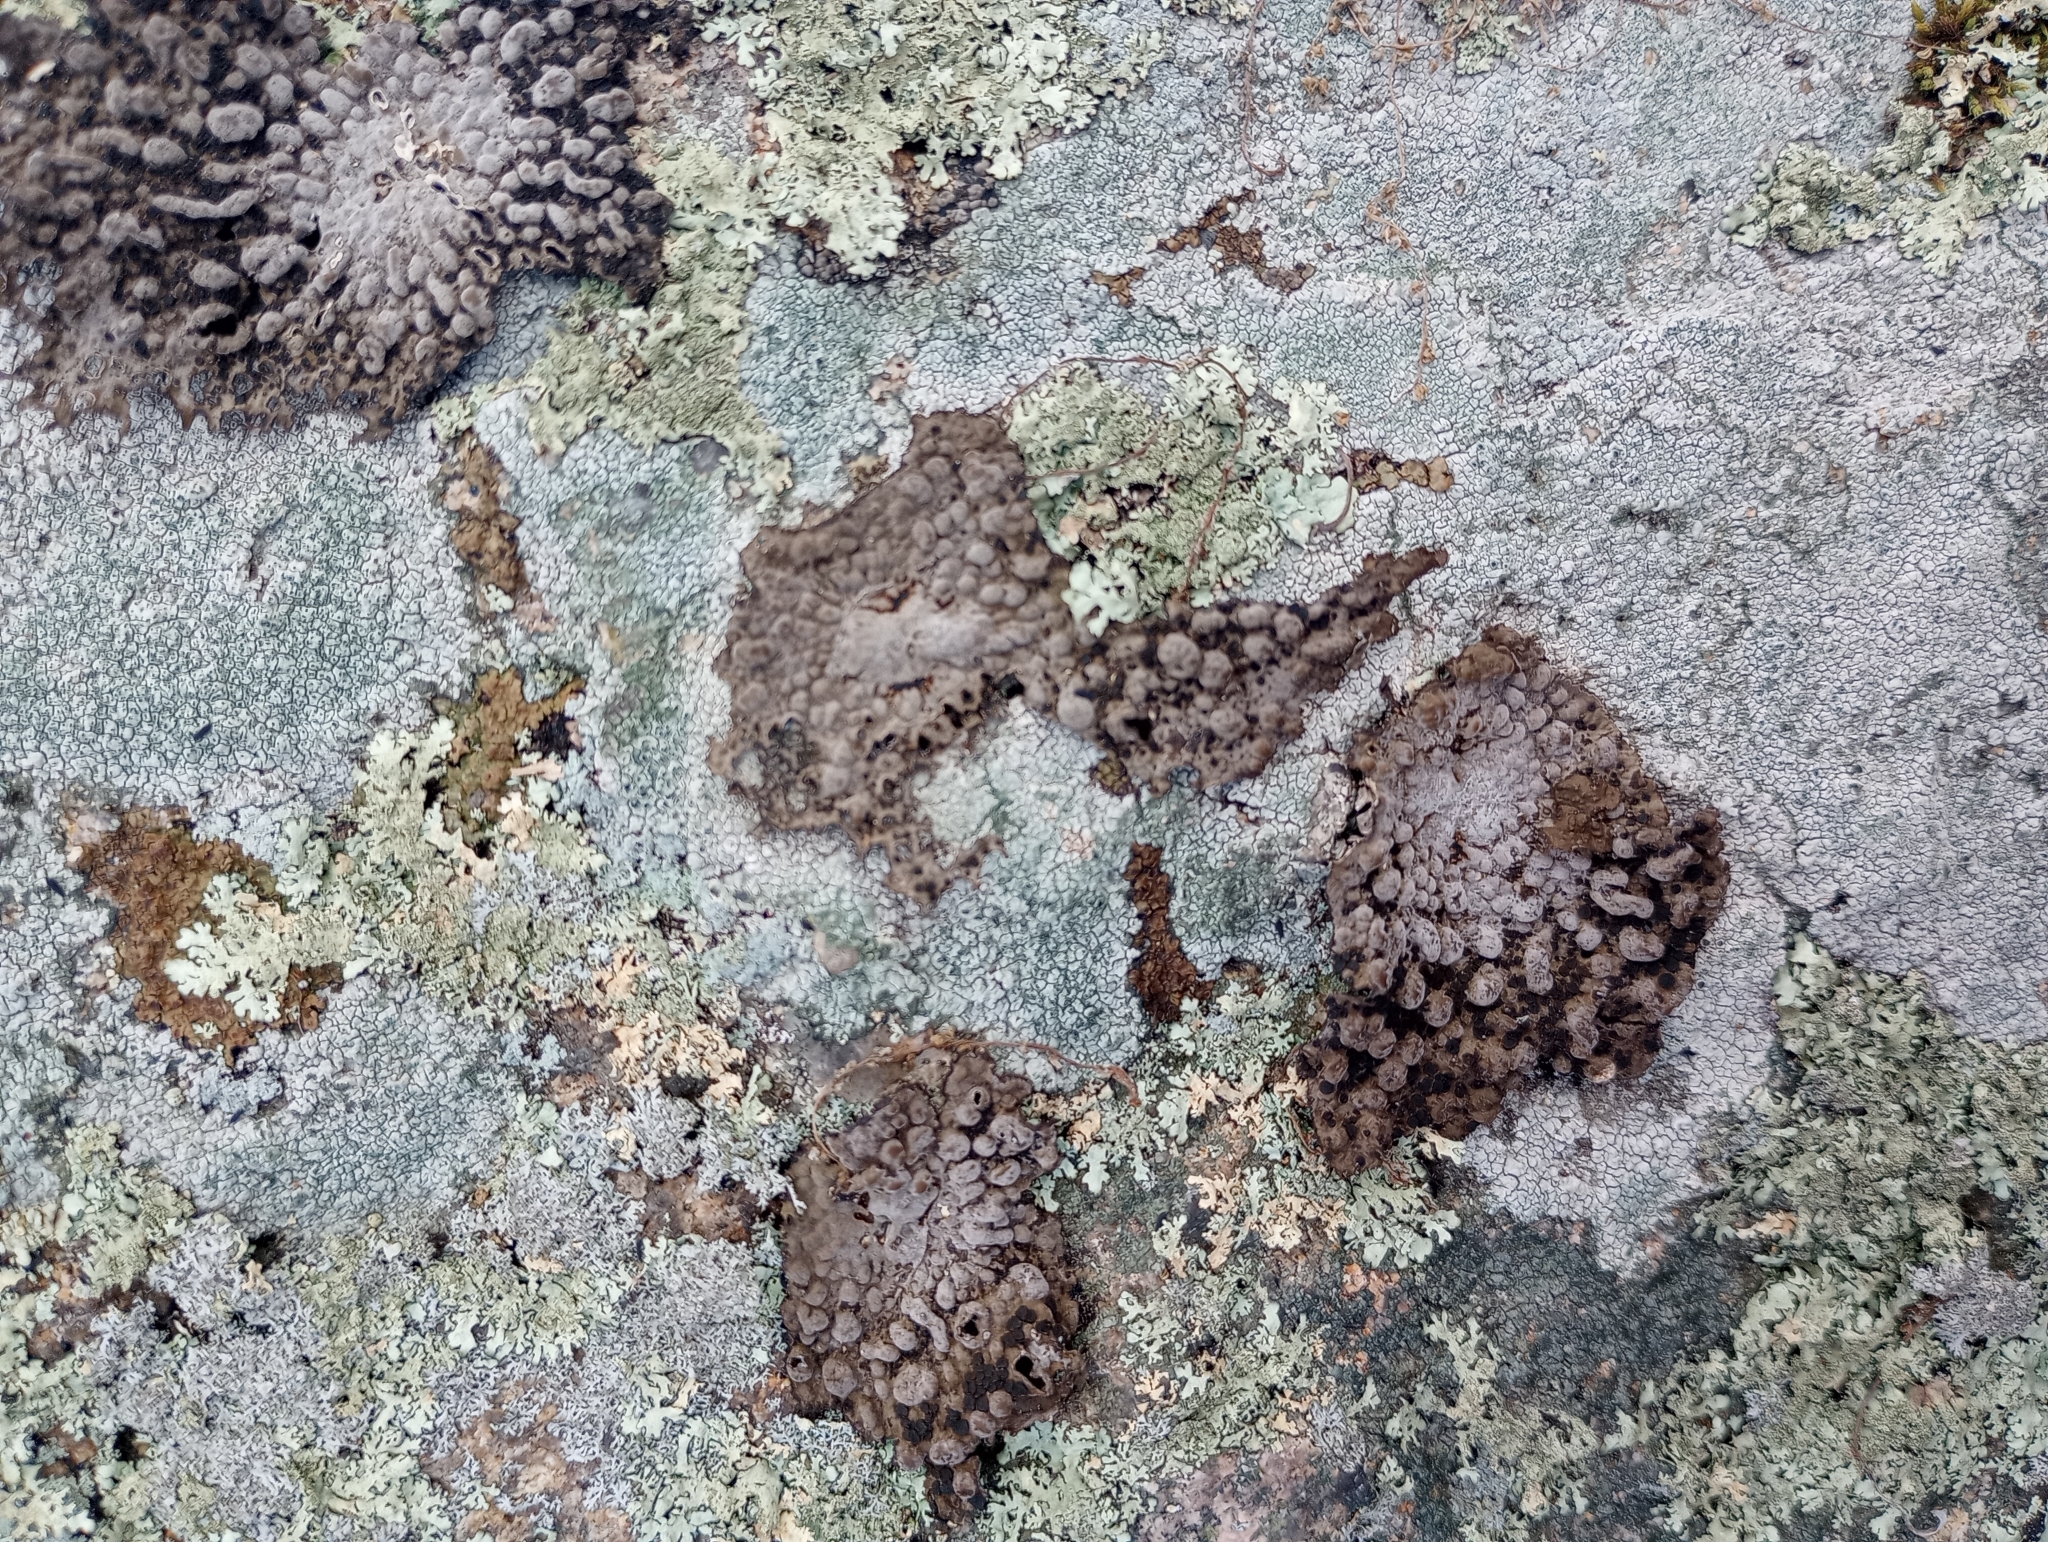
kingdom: Fungi
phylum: Ascomycota
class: Lecanoromycetes
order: Umbilicariales
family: Umbilicariaceae
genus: Lasallia
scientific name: Lasallia papulosa
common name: Common toadskin lichen
